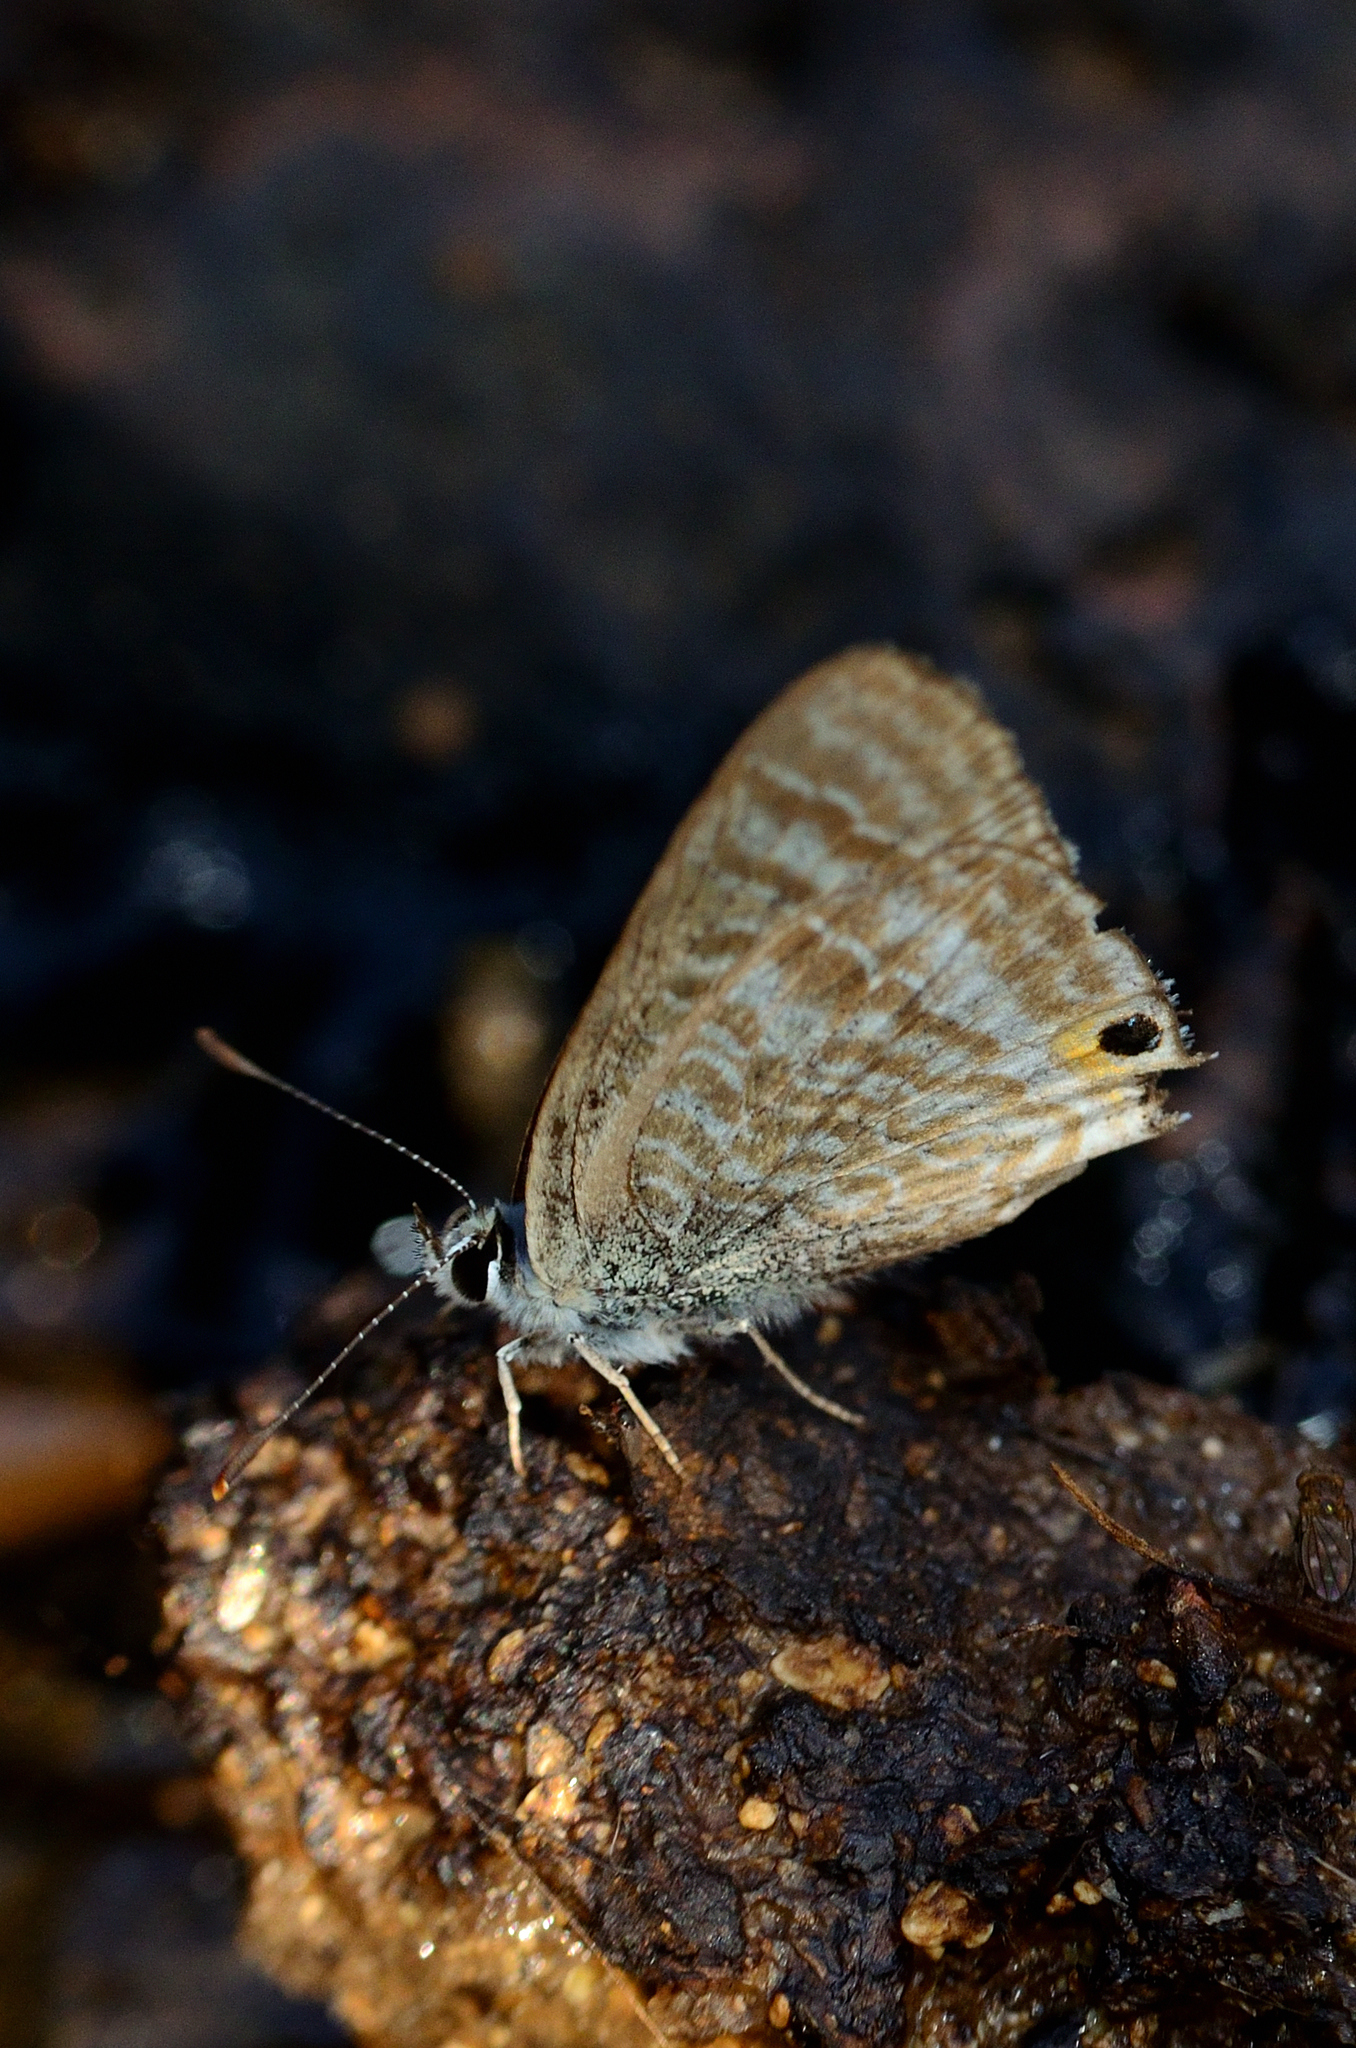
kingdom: Animalia
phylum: Arthropoda
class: Insecta
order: Lepidoptera
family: Lycaenidae
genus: Lampides
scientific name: Lampides boeticus
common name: Long-tailed blue
